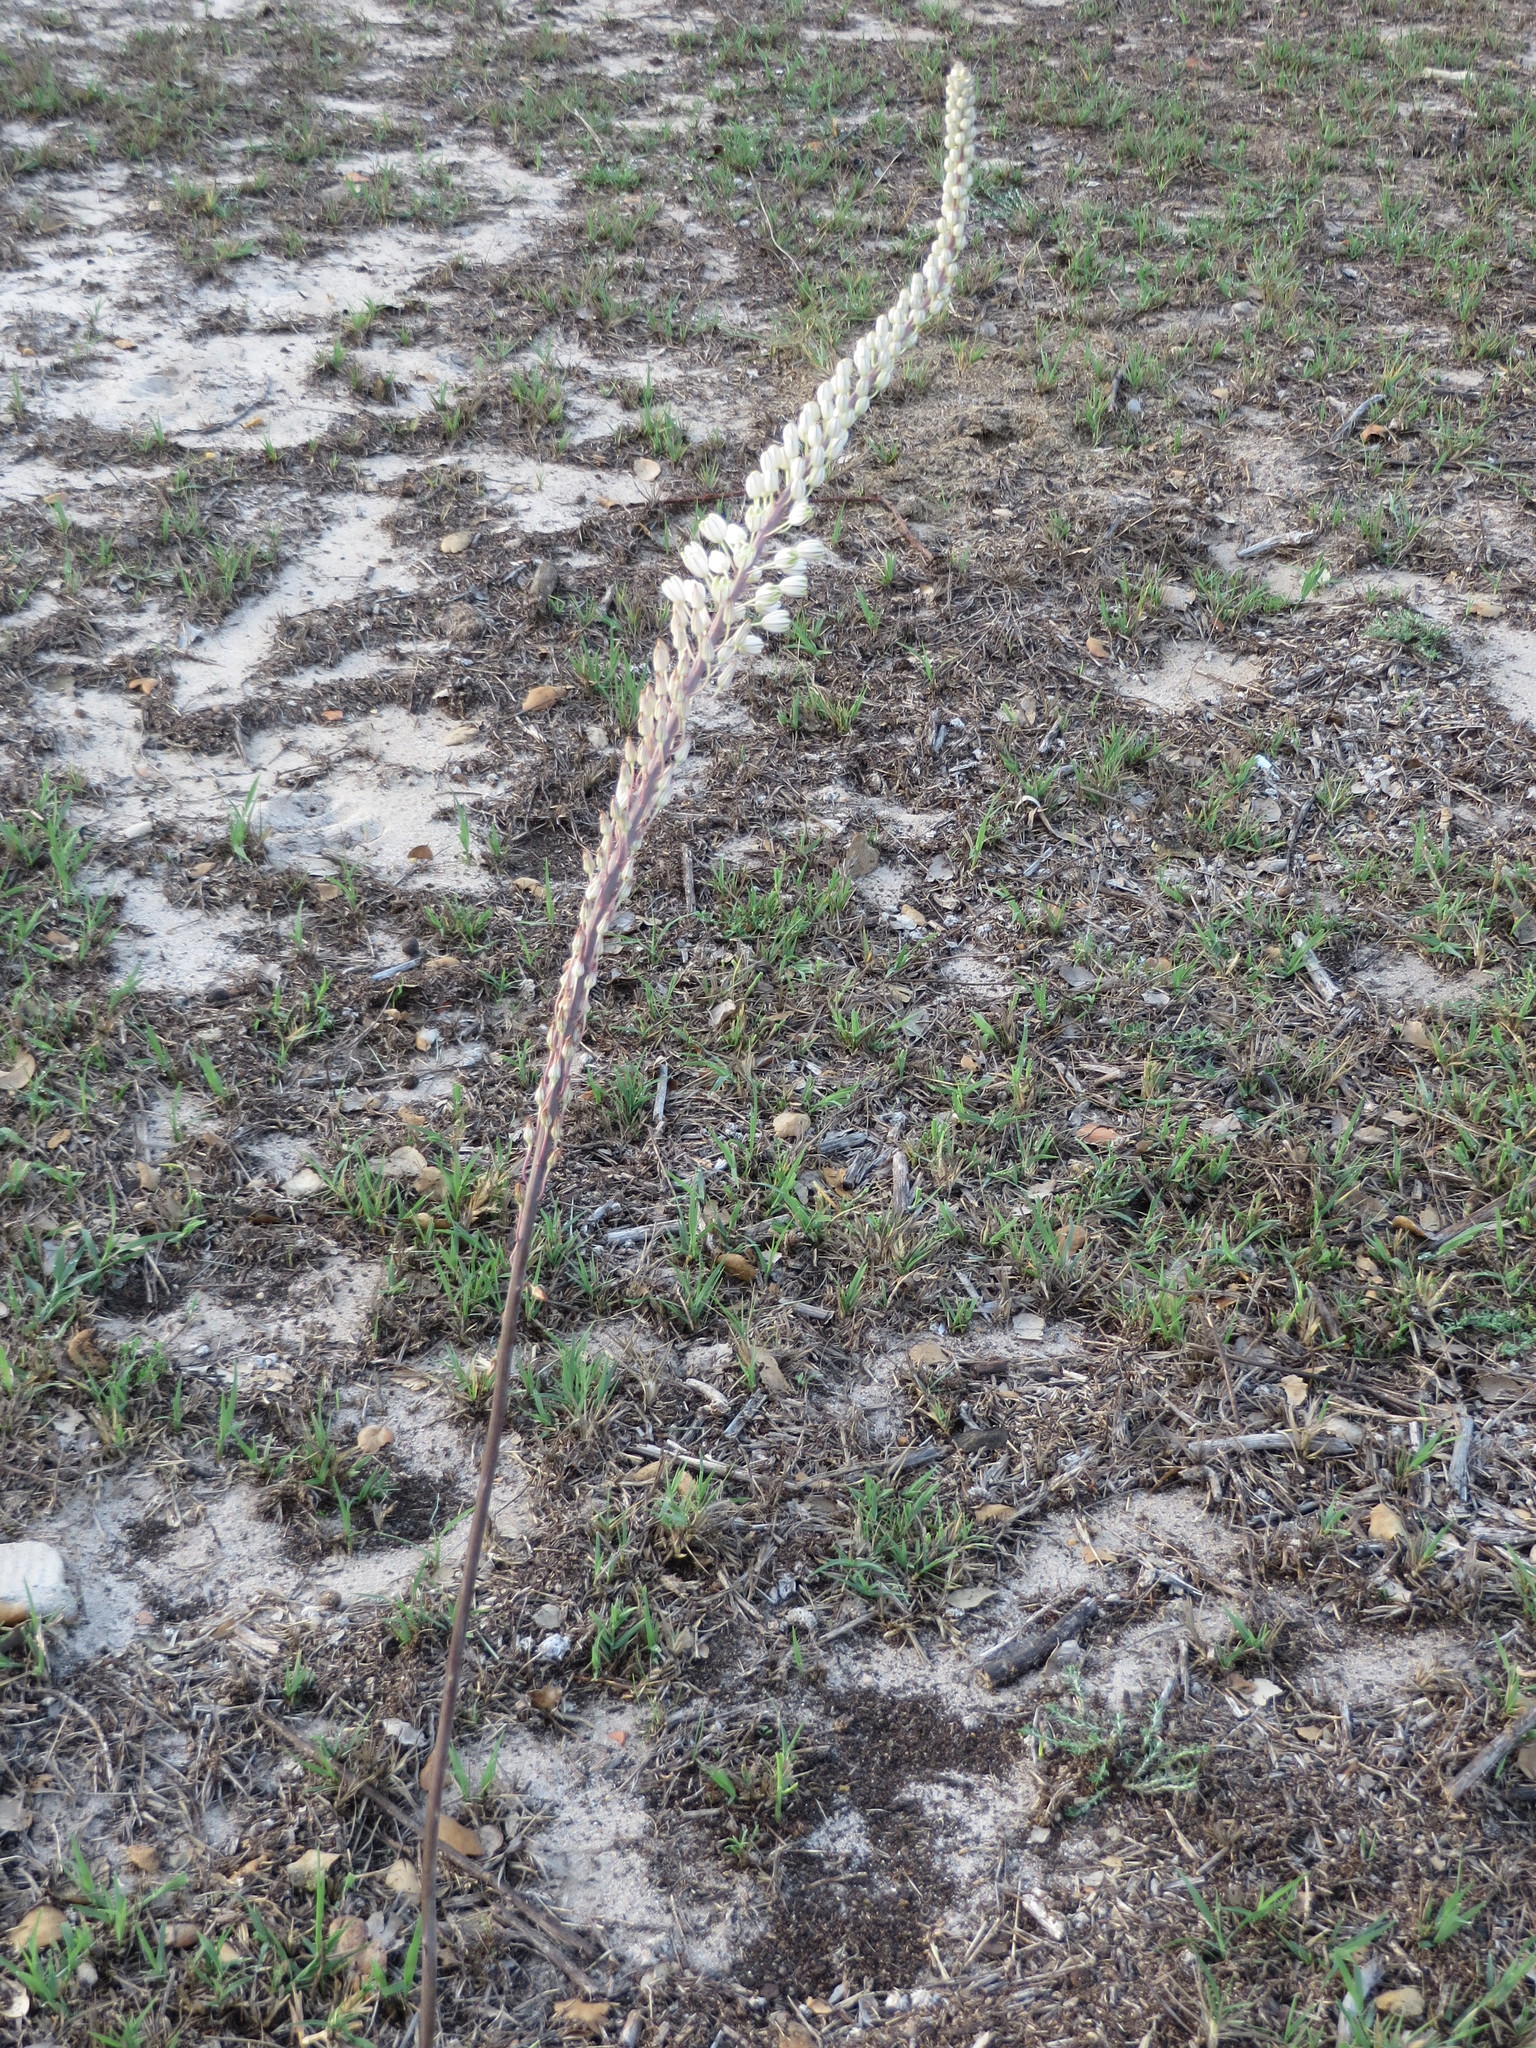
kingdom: Plantae
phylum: Tracheophyta
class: Liliopsida
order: Asparagales
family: Asparagaceae
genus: Drimia
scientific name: Drimia maritima
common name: Maritime squill
